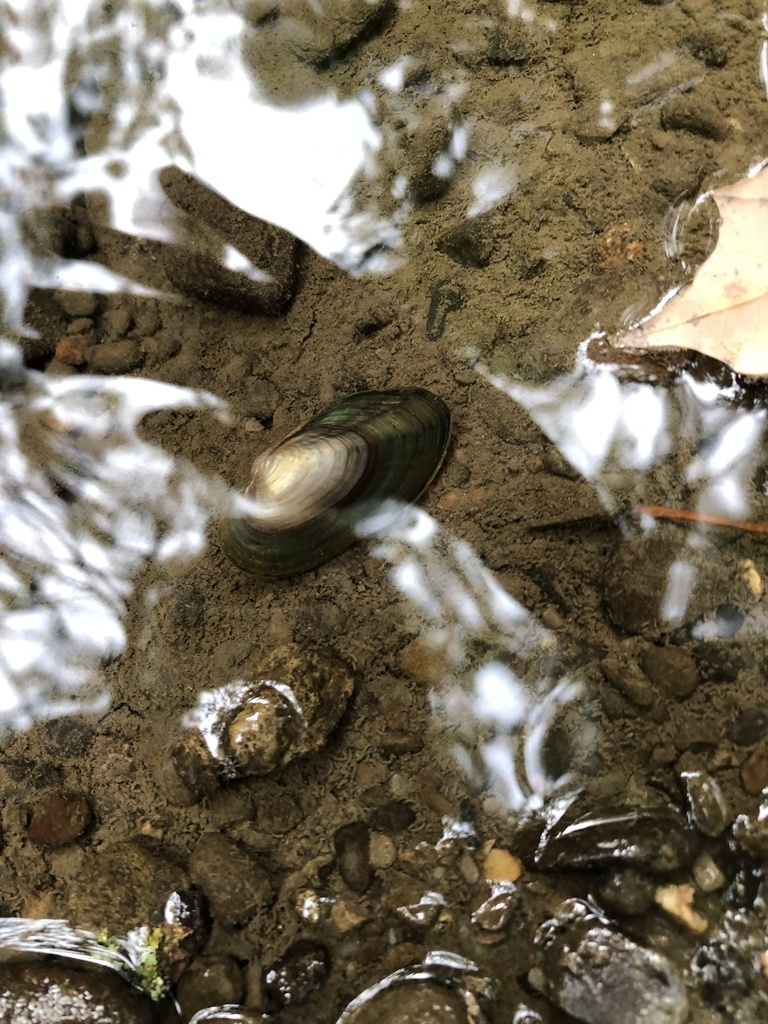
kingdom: Animalia
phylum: Mollusca
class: Bivalvia
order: Unionida
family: Unionidae
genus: Anodontoides
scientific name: Anodontoides ferussacianus
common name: Cylindrical papershell
